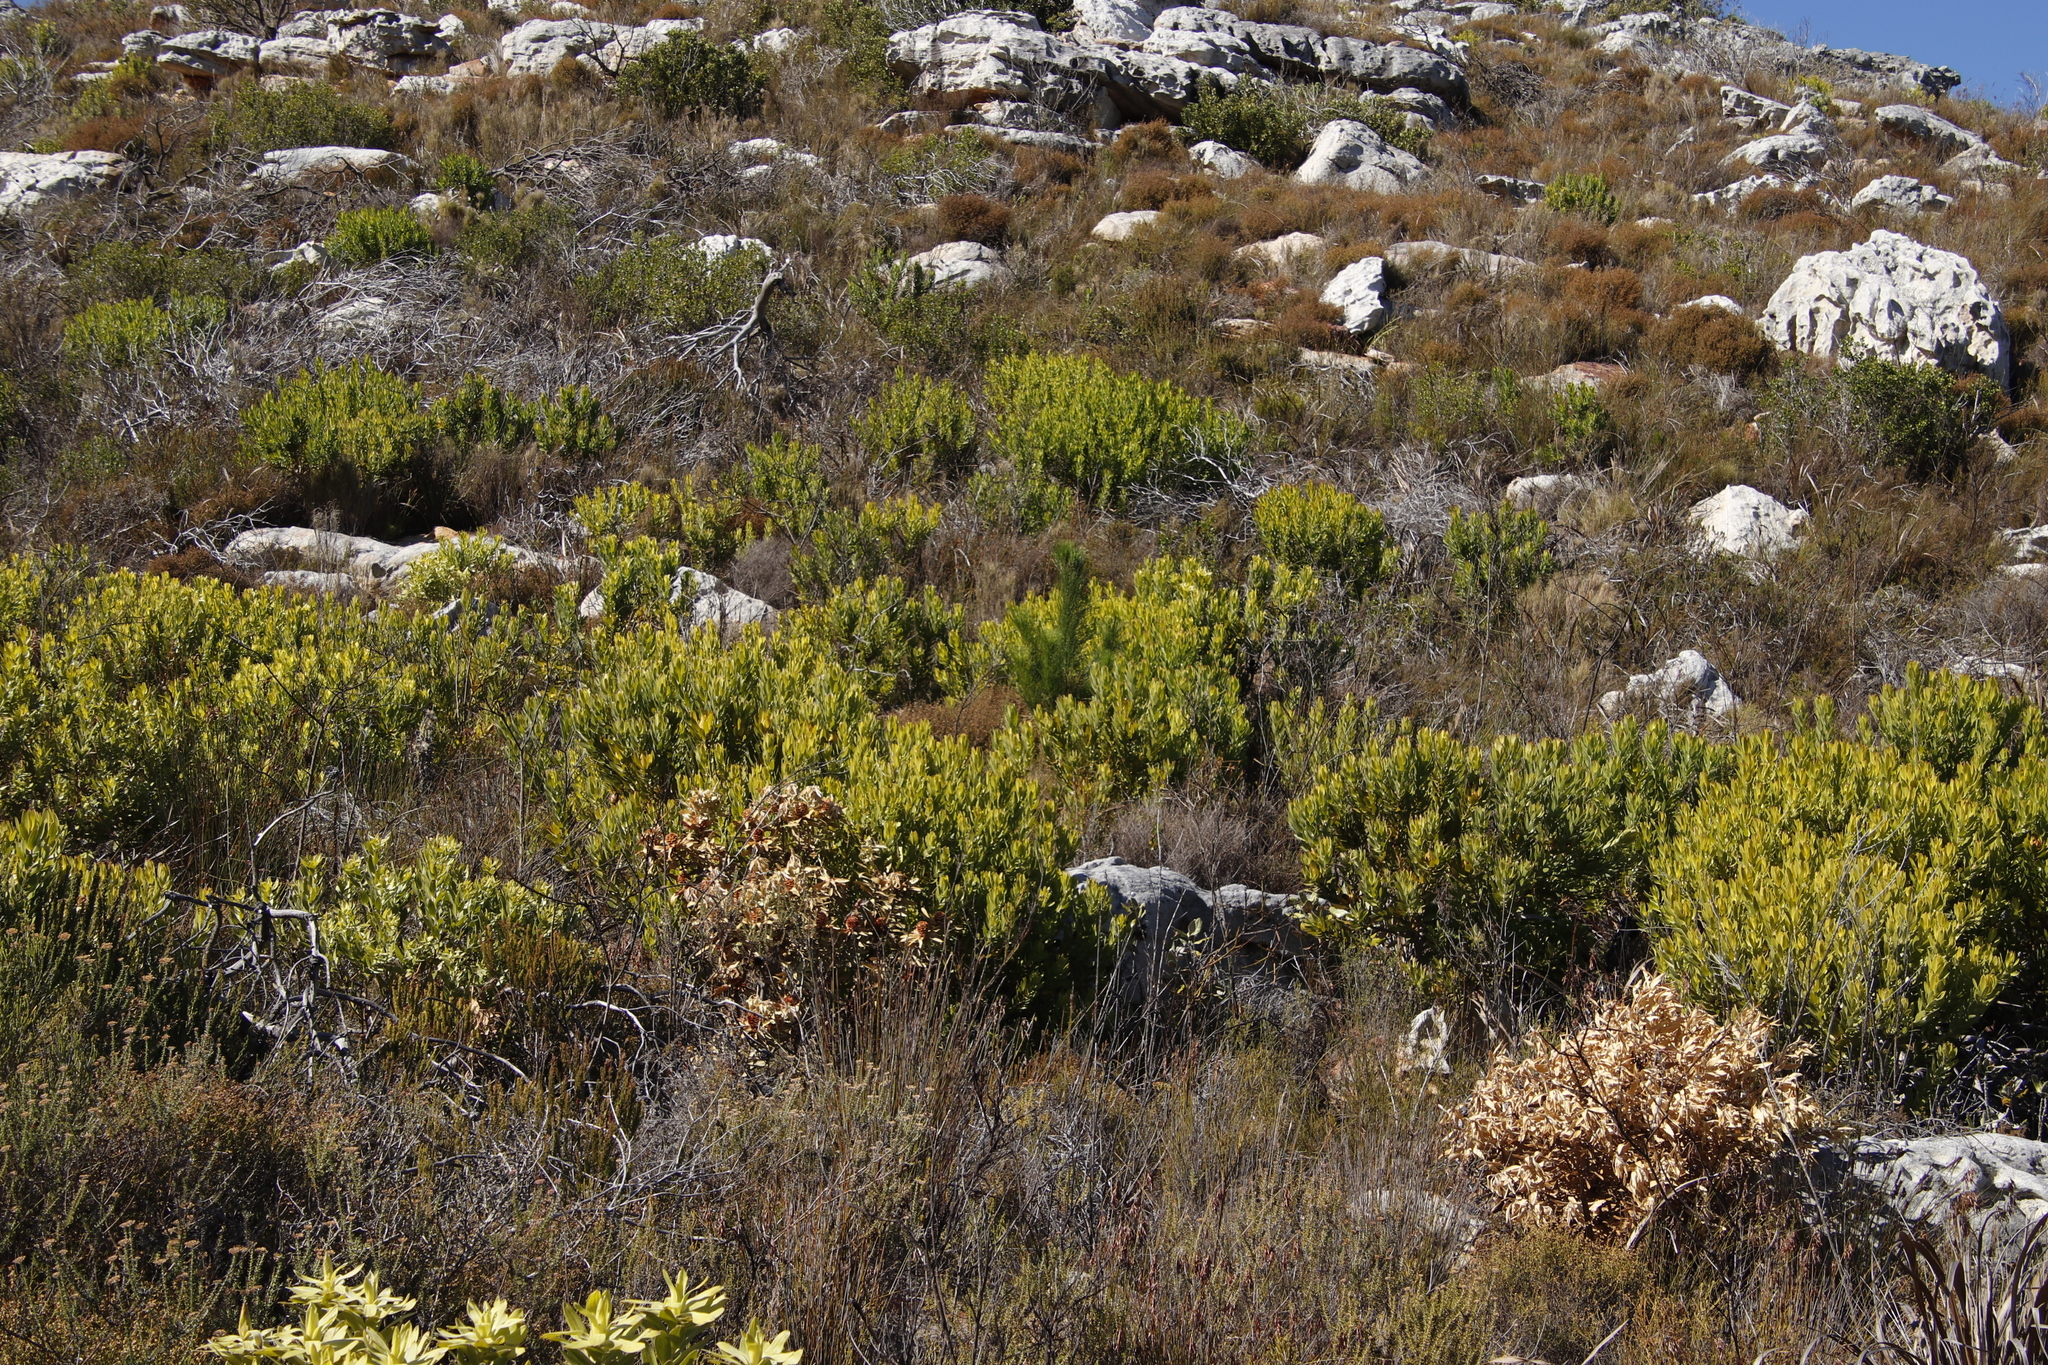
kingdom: Plantae
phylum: Tracheophyta
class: Magnoliopsida
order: Proteales
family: Proteaceae
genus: Leucadendron
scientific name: Leucadendron laureolum
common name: Golden sunshinebush
